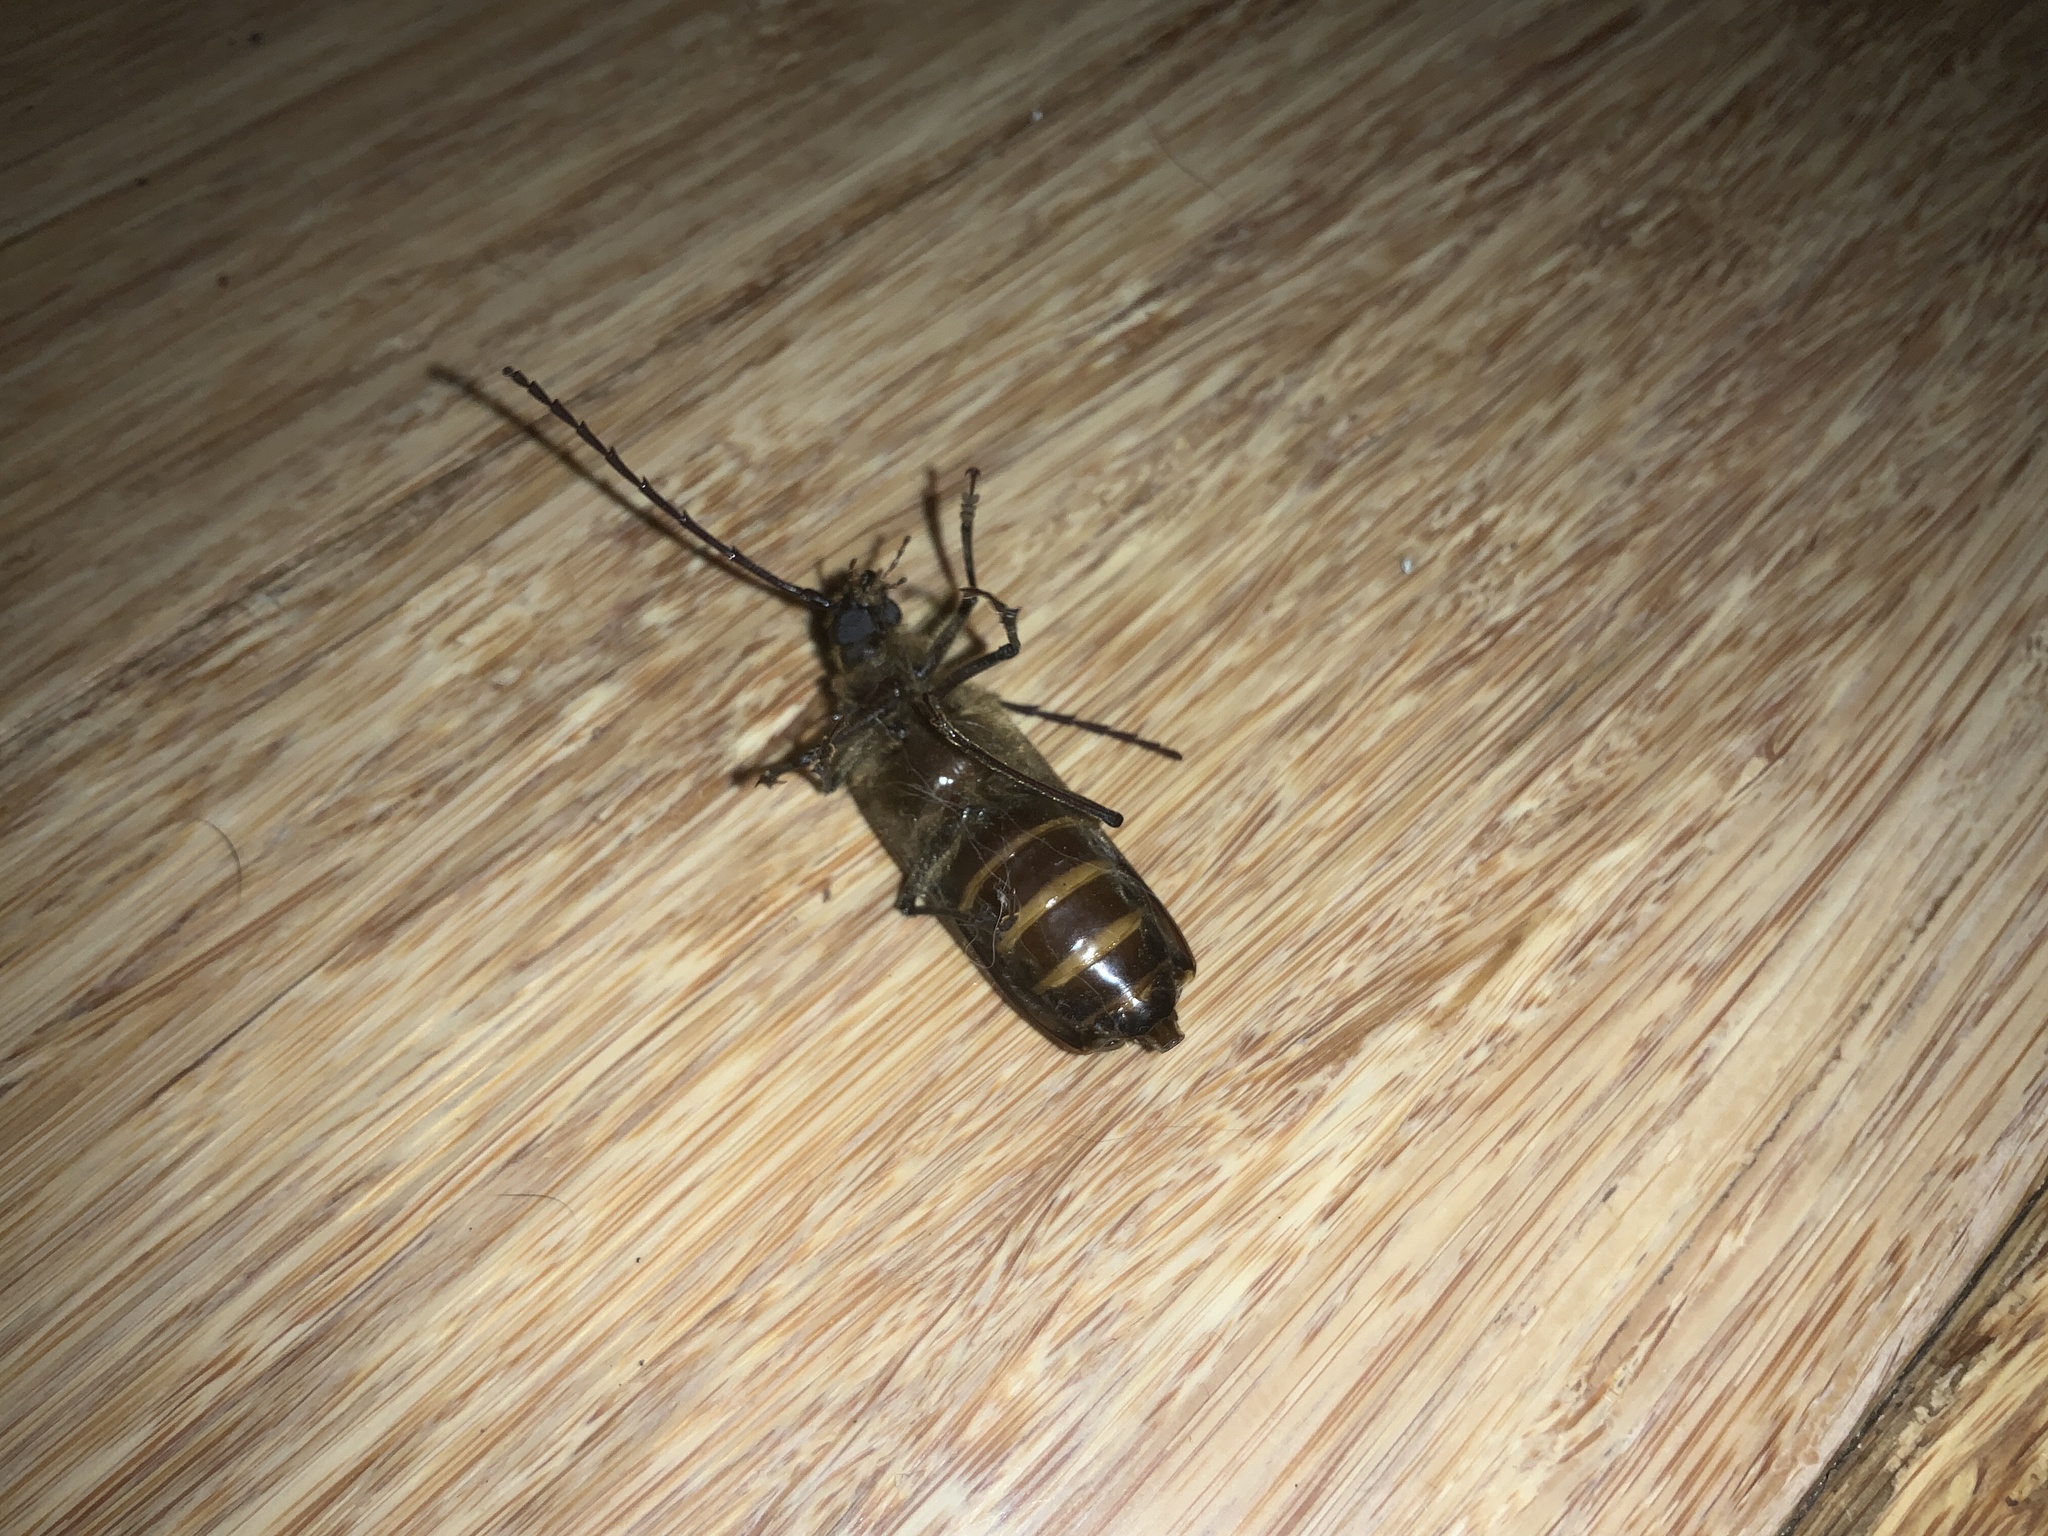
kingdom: Animalia
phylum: Arthropoda
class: Insecta
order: Coleoptera
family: Cerambycidae
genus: Prionoplus
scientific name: Prionoplus reticularis
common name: Huhu beetle
